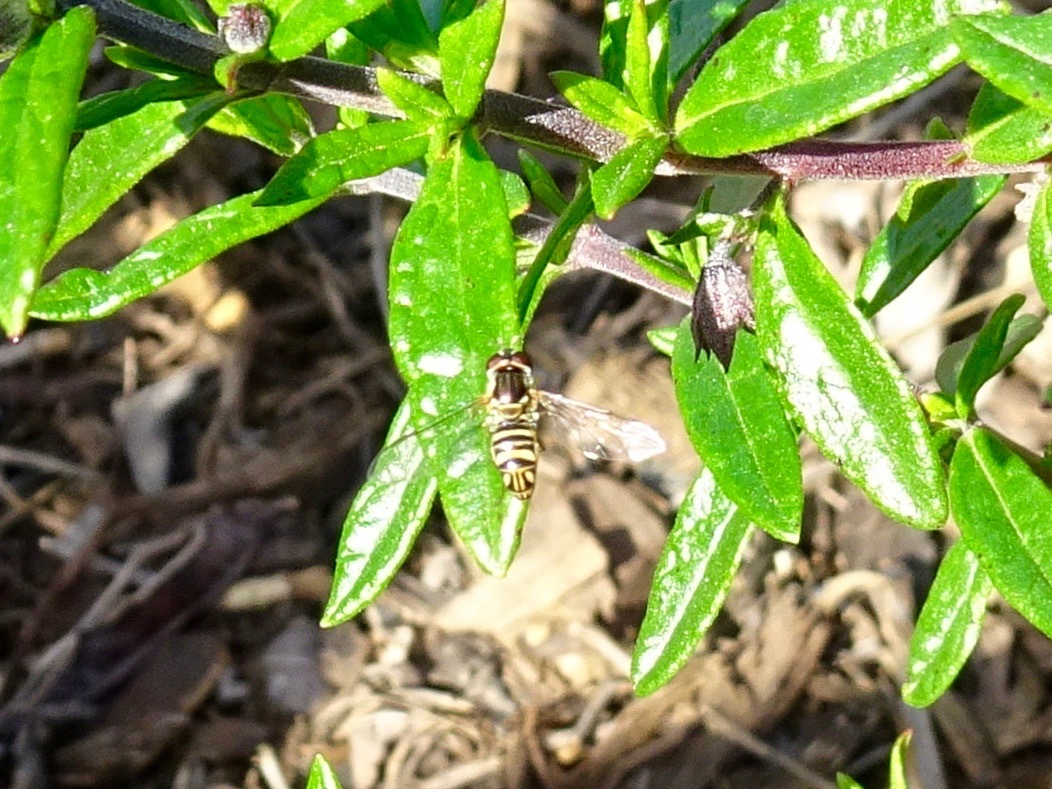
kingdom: Animalia
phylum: Arthropoda
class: Insecta
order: Diptera
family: Syrphidae
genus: Allograpta
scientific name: Allograpta obliqua
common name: Common oblique syrphid
